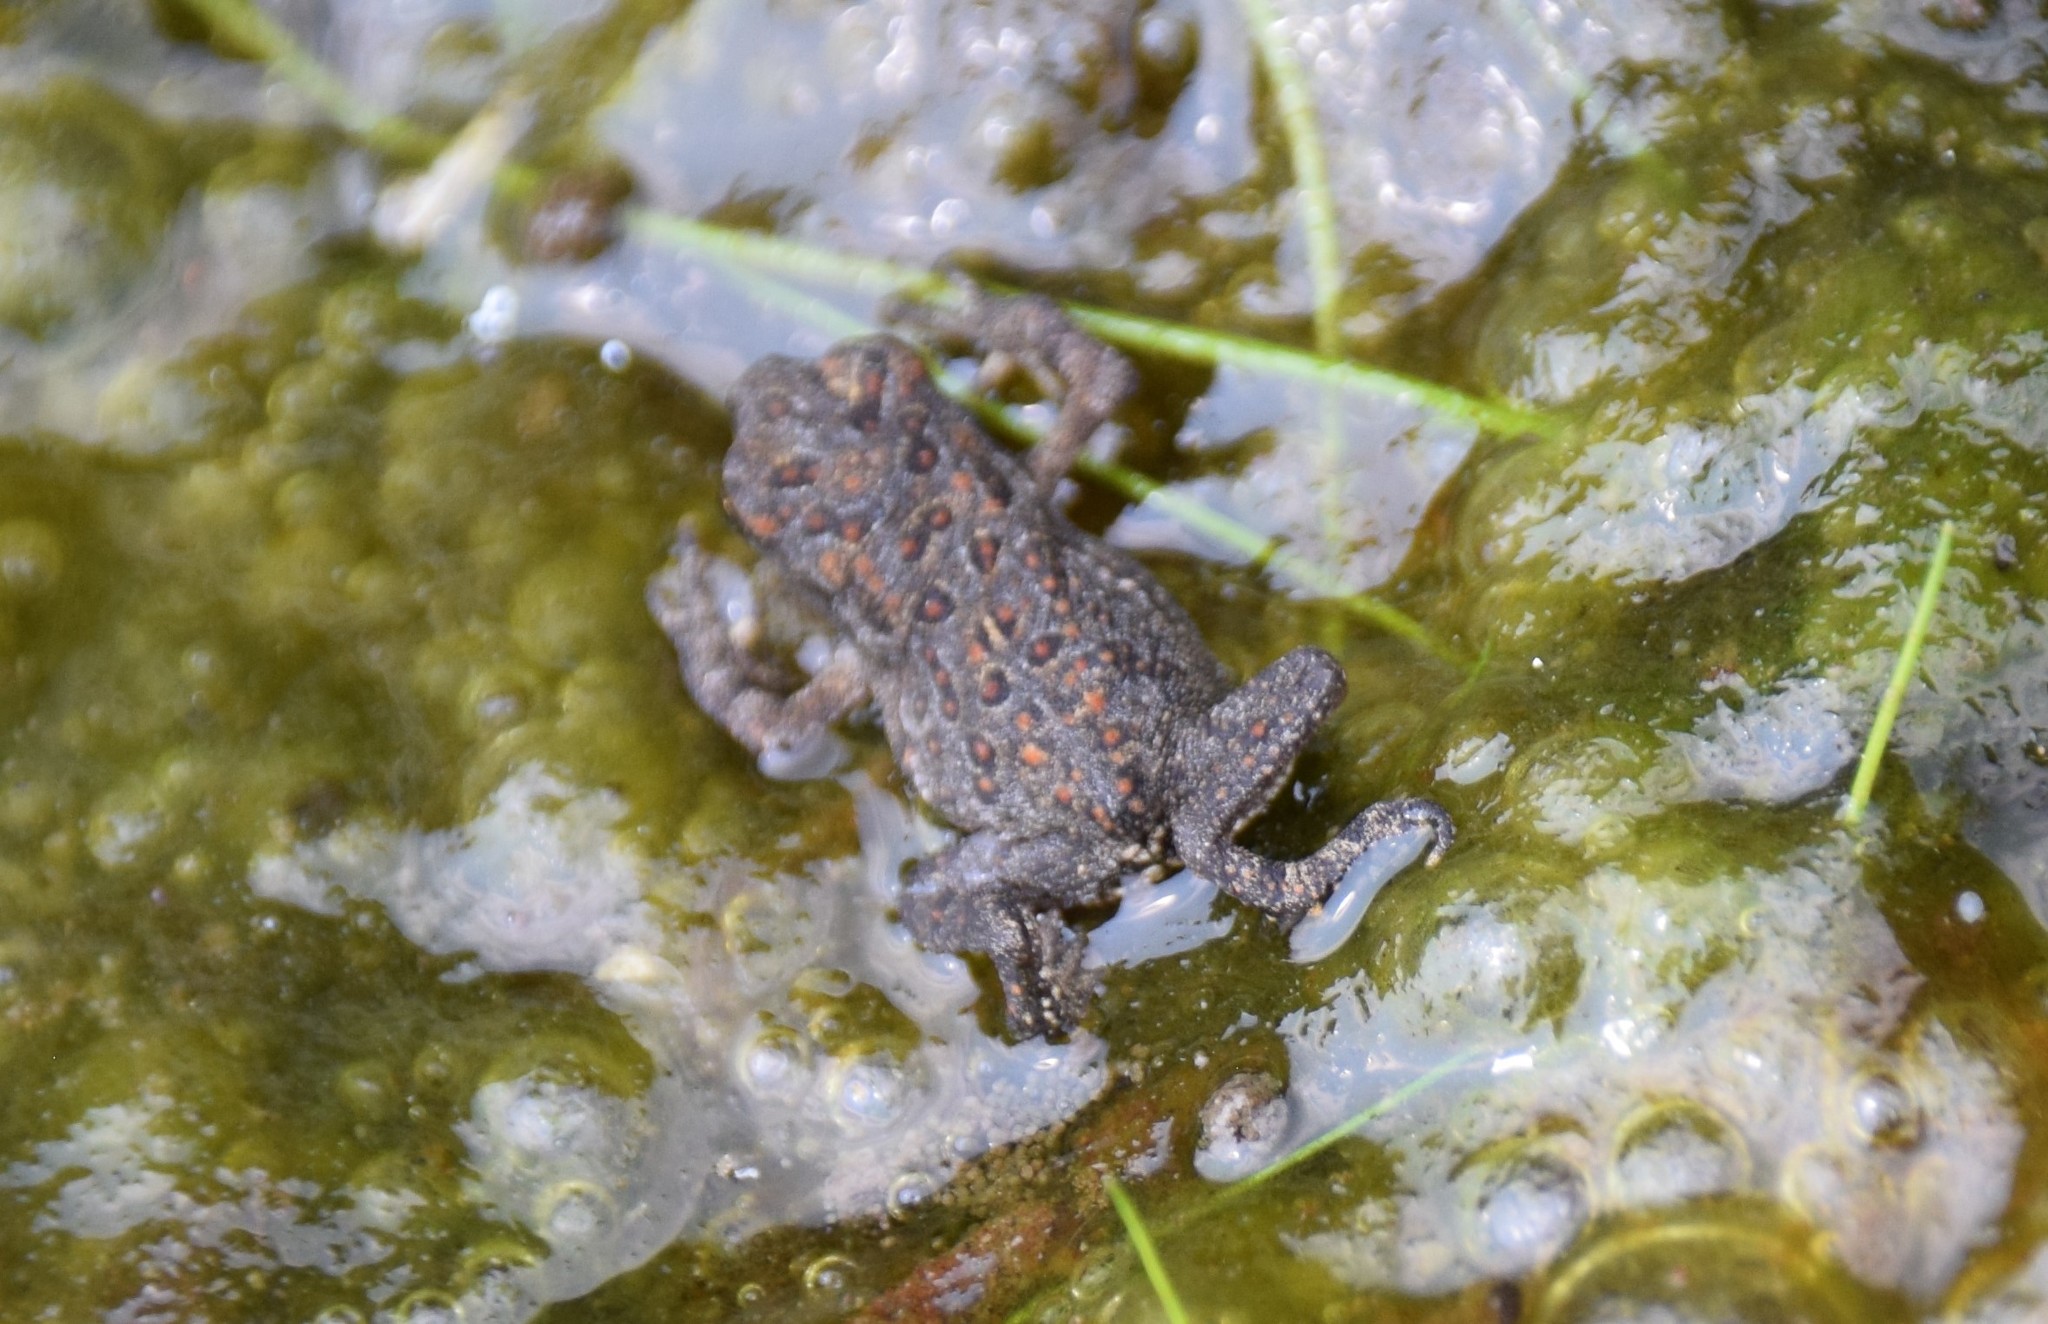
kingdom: Animalia
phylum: Chordata
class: Amphibia
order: Anura
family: Bufonidae
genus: Anaxyrus
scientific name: Anaxyrus americanus
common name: American toad
